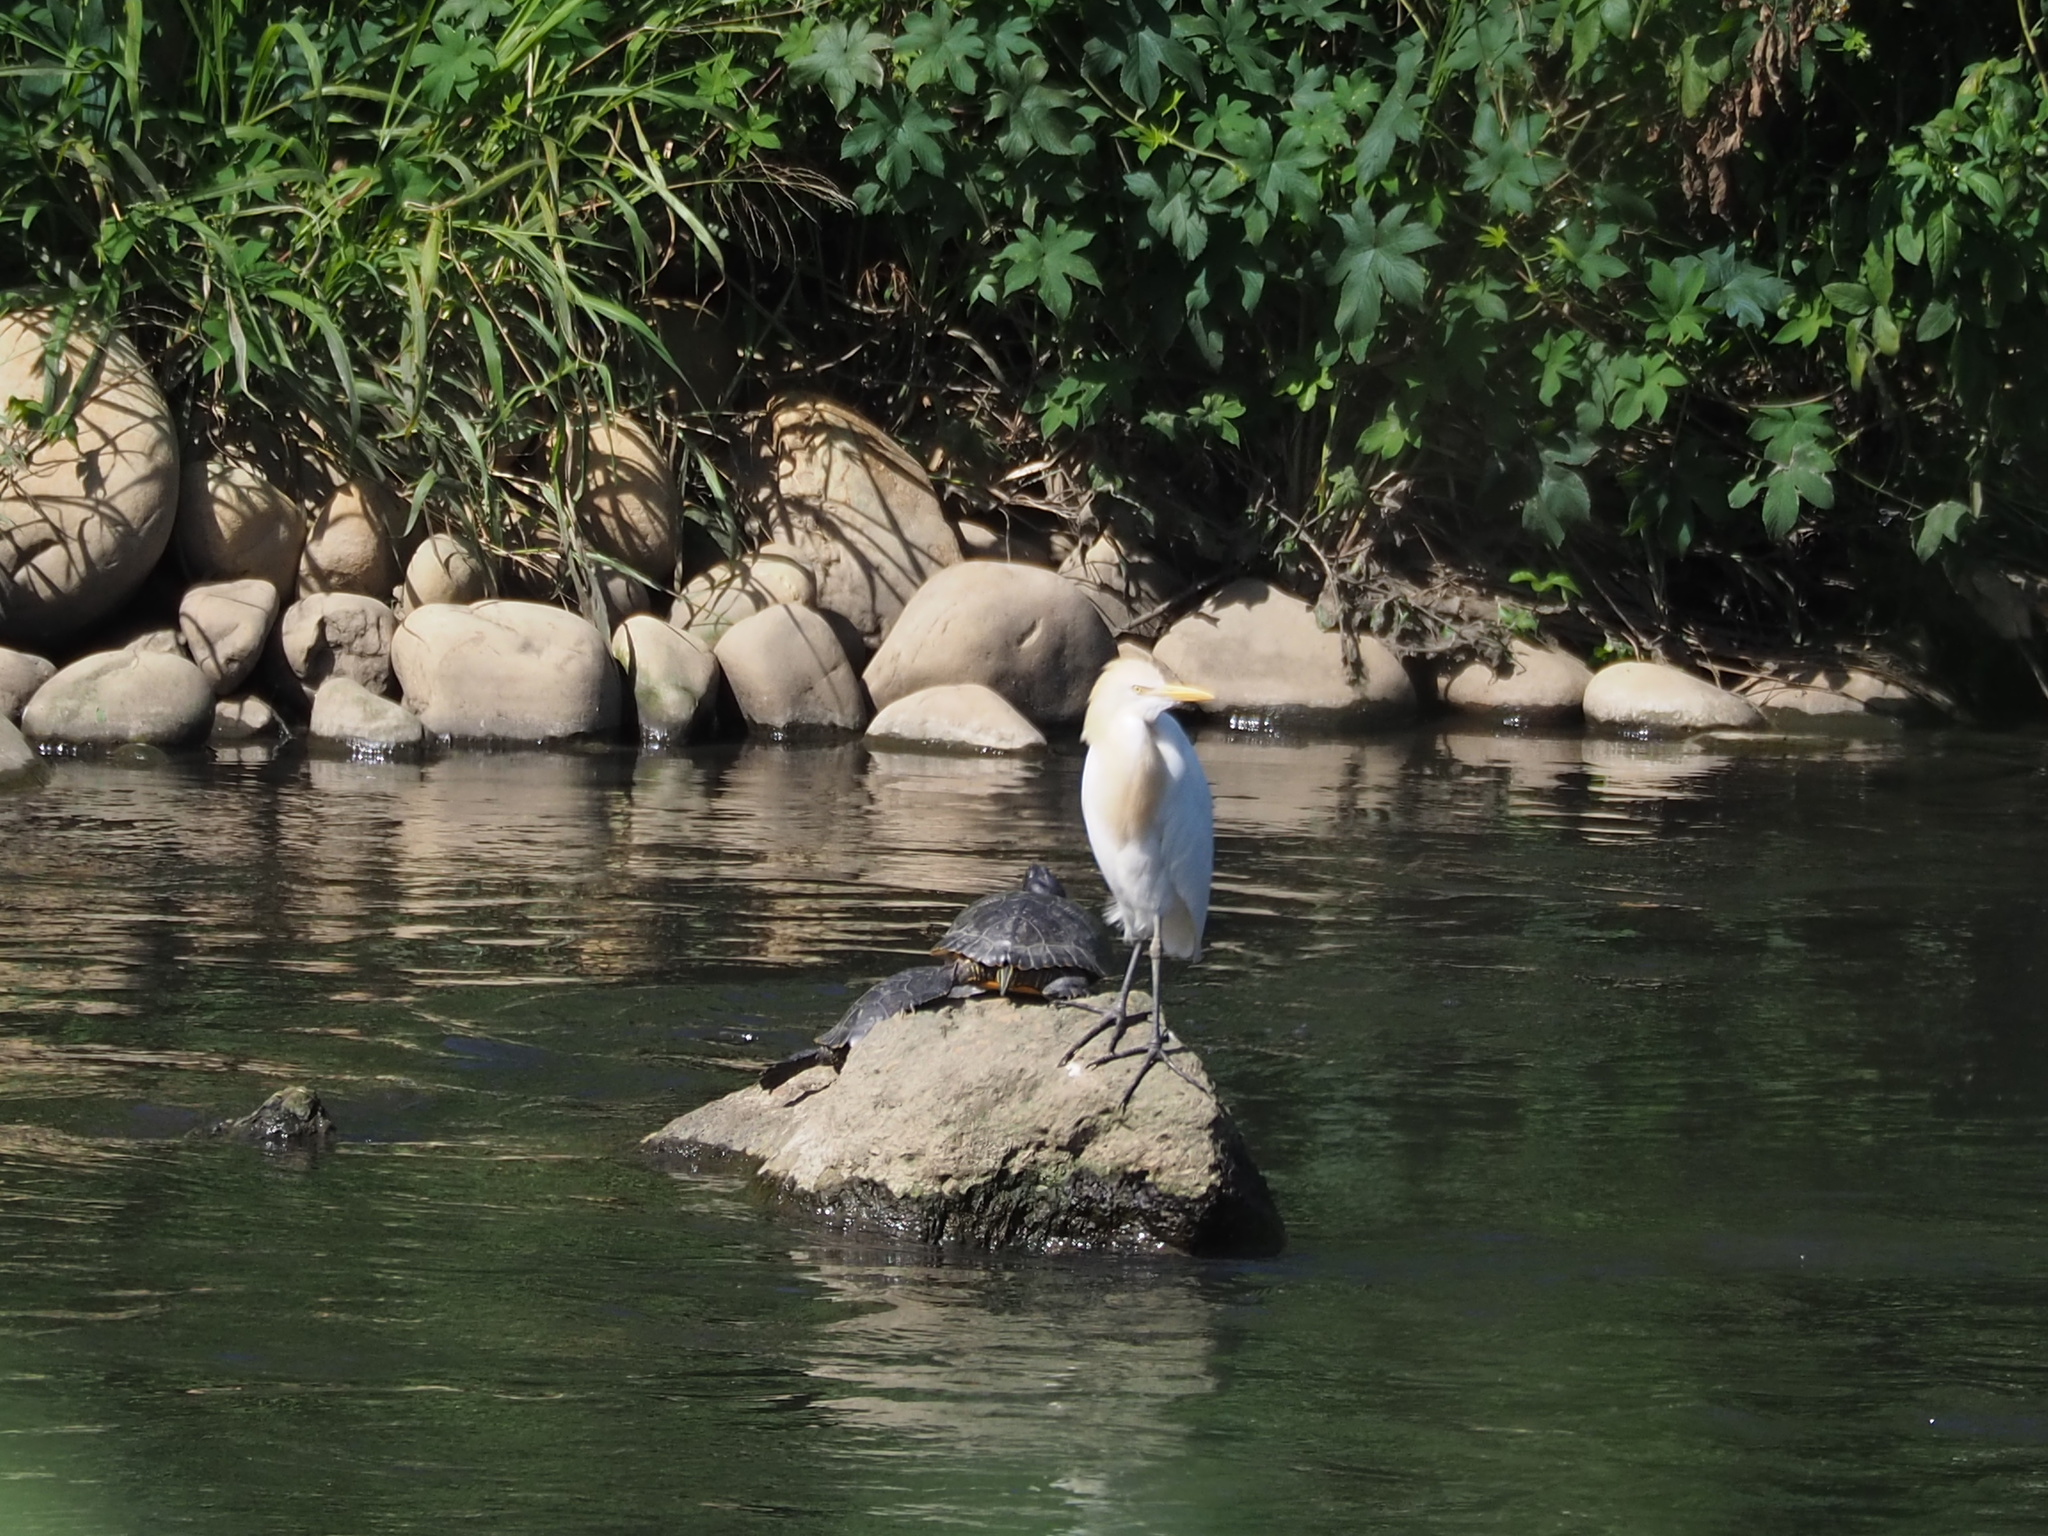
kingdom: Animalia
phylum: Chordata
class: Aves
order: Pelecaniformes
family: Ardeidae
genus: Bubulcus
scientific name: Bubulcus coromandus
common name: Eastern cattle egret
